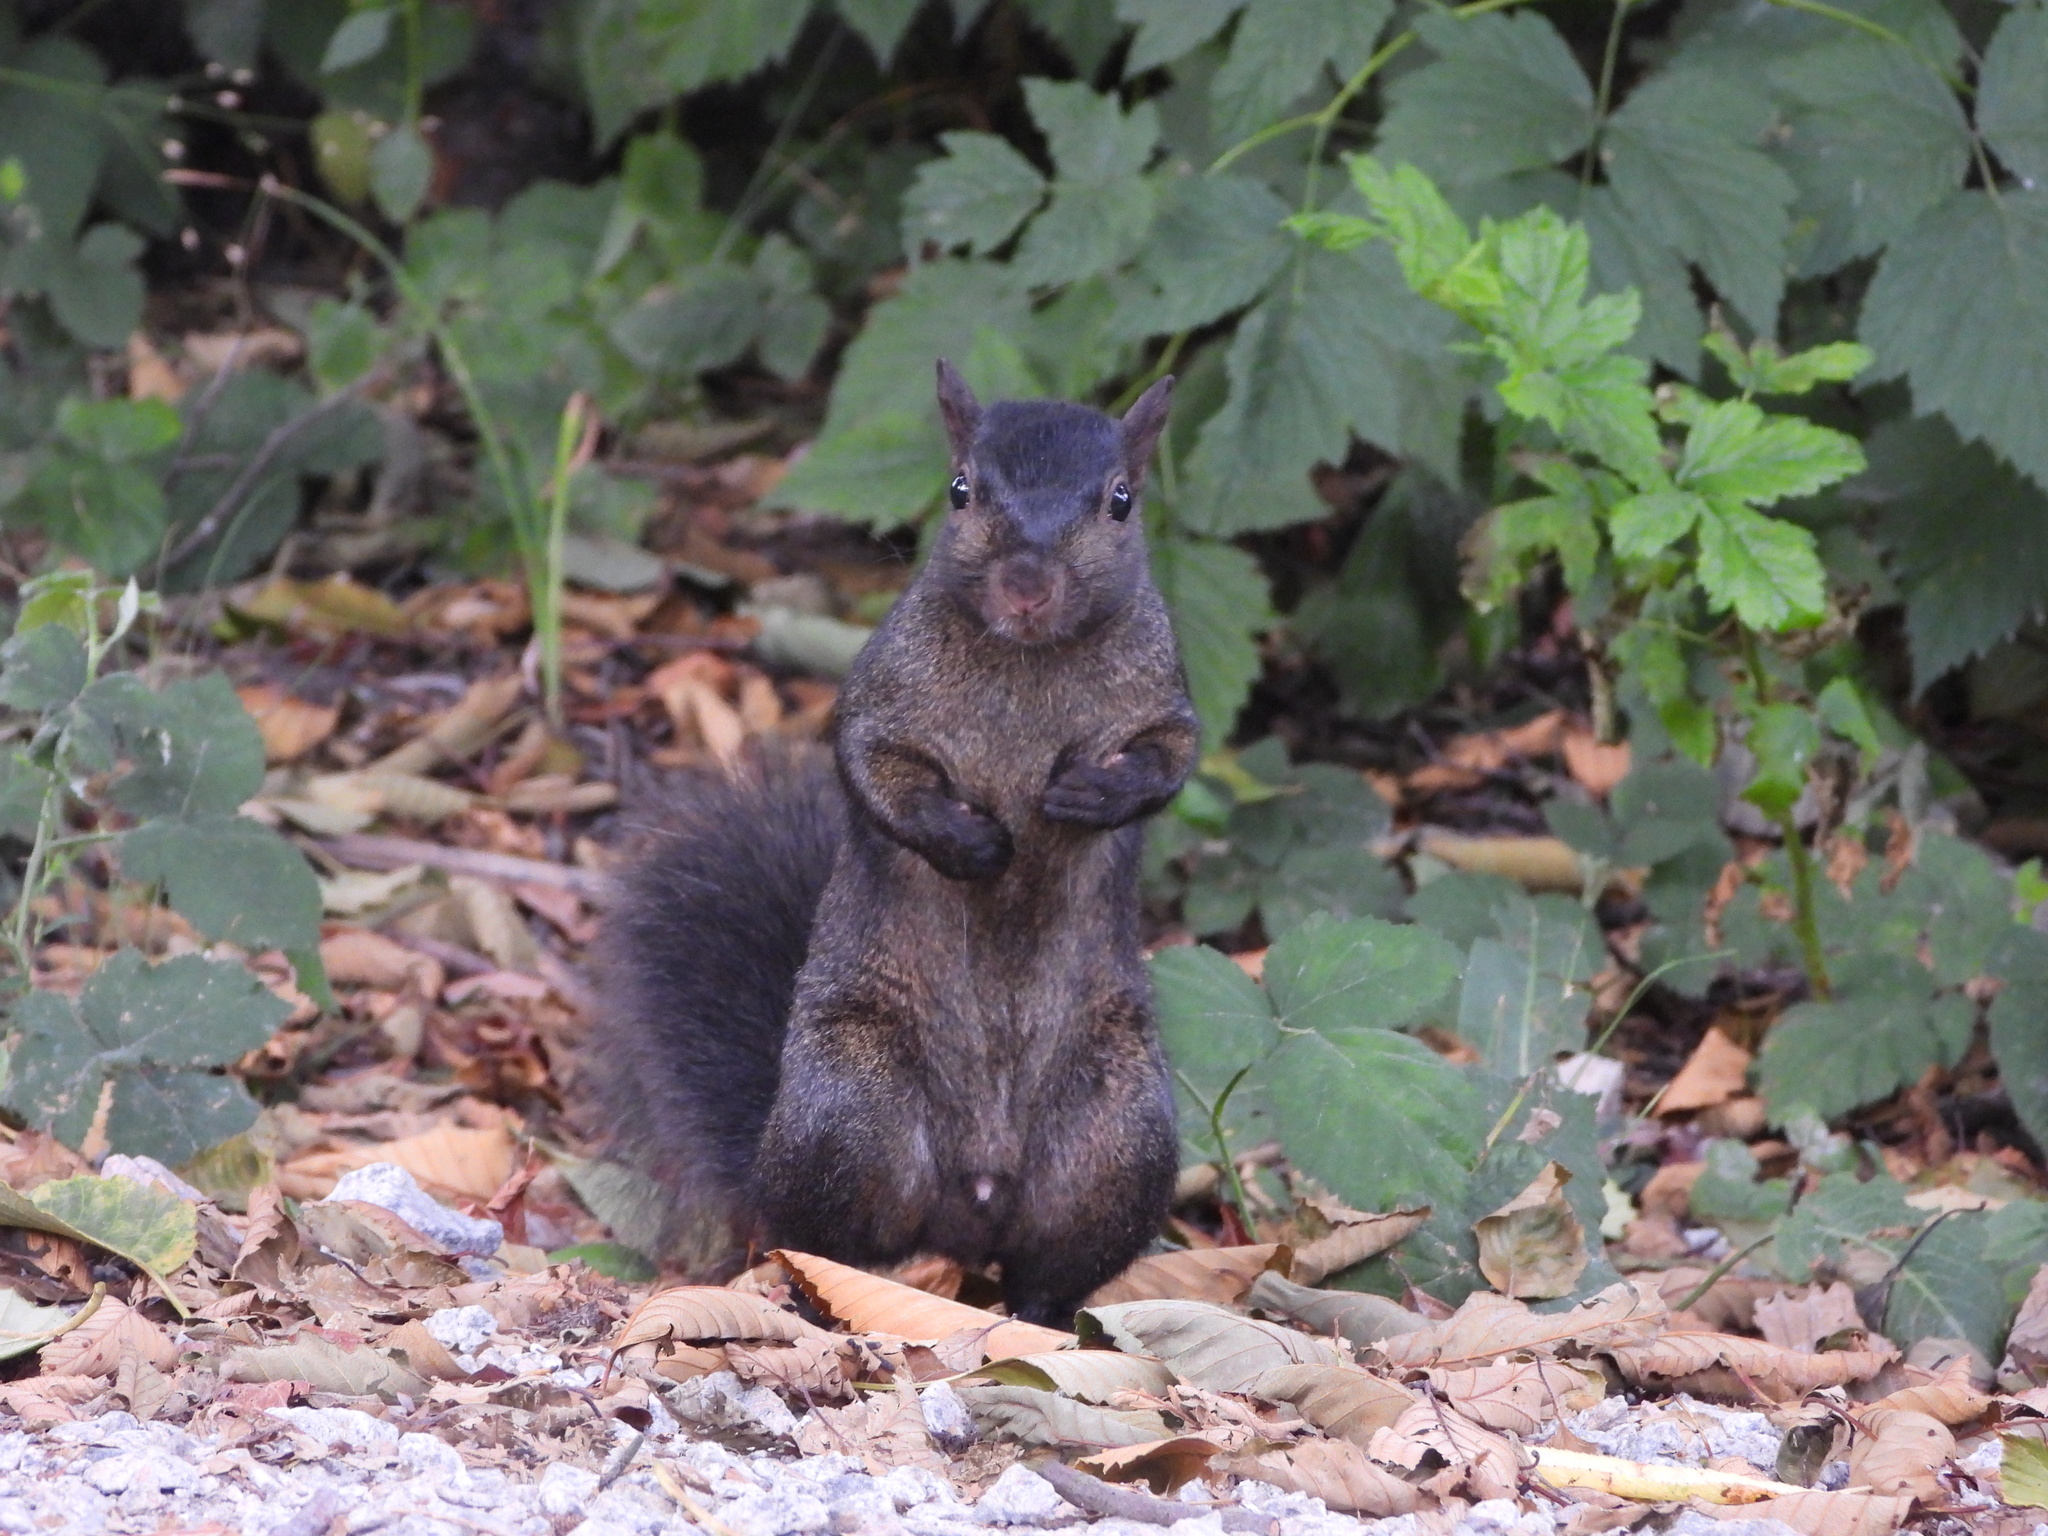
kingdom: Animalia
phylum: Chordata
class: Mammalia
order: Rodentia
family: Sciuridae
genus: Sciurus
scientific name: Sciurus carolinensis
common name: Eastern gray squirrel
